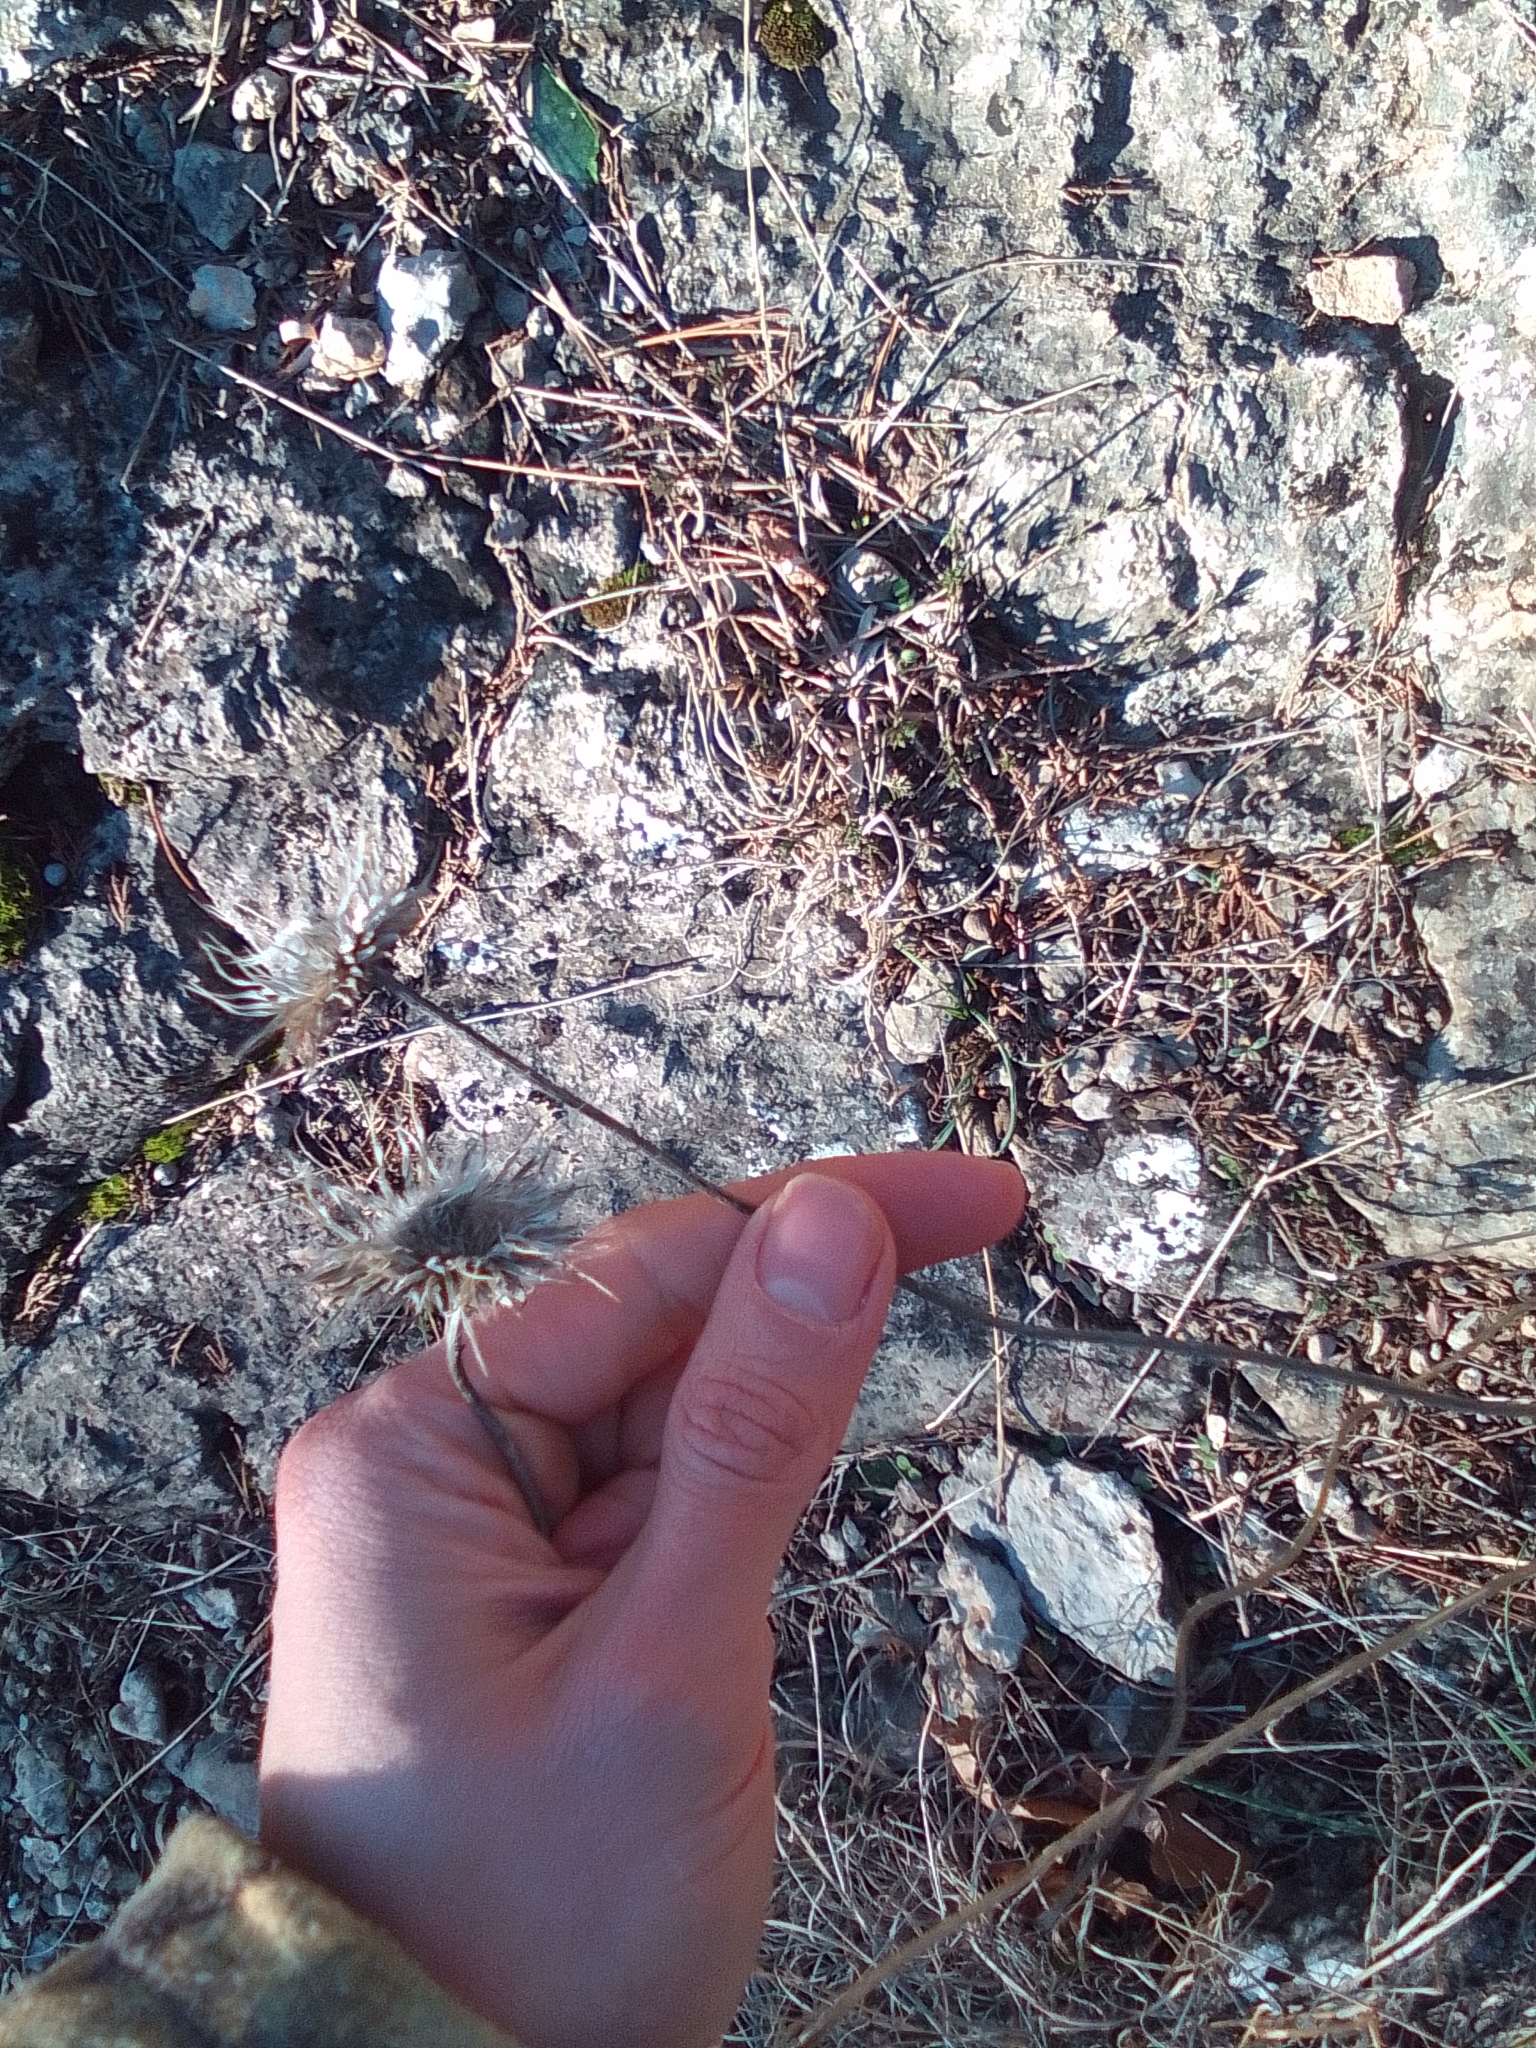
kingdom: Plantae
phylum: Tracheophyta
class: Magnoliopsida
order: Asterales
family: Asteraceae
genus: Jurinea
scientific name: Jurinea roegneri
